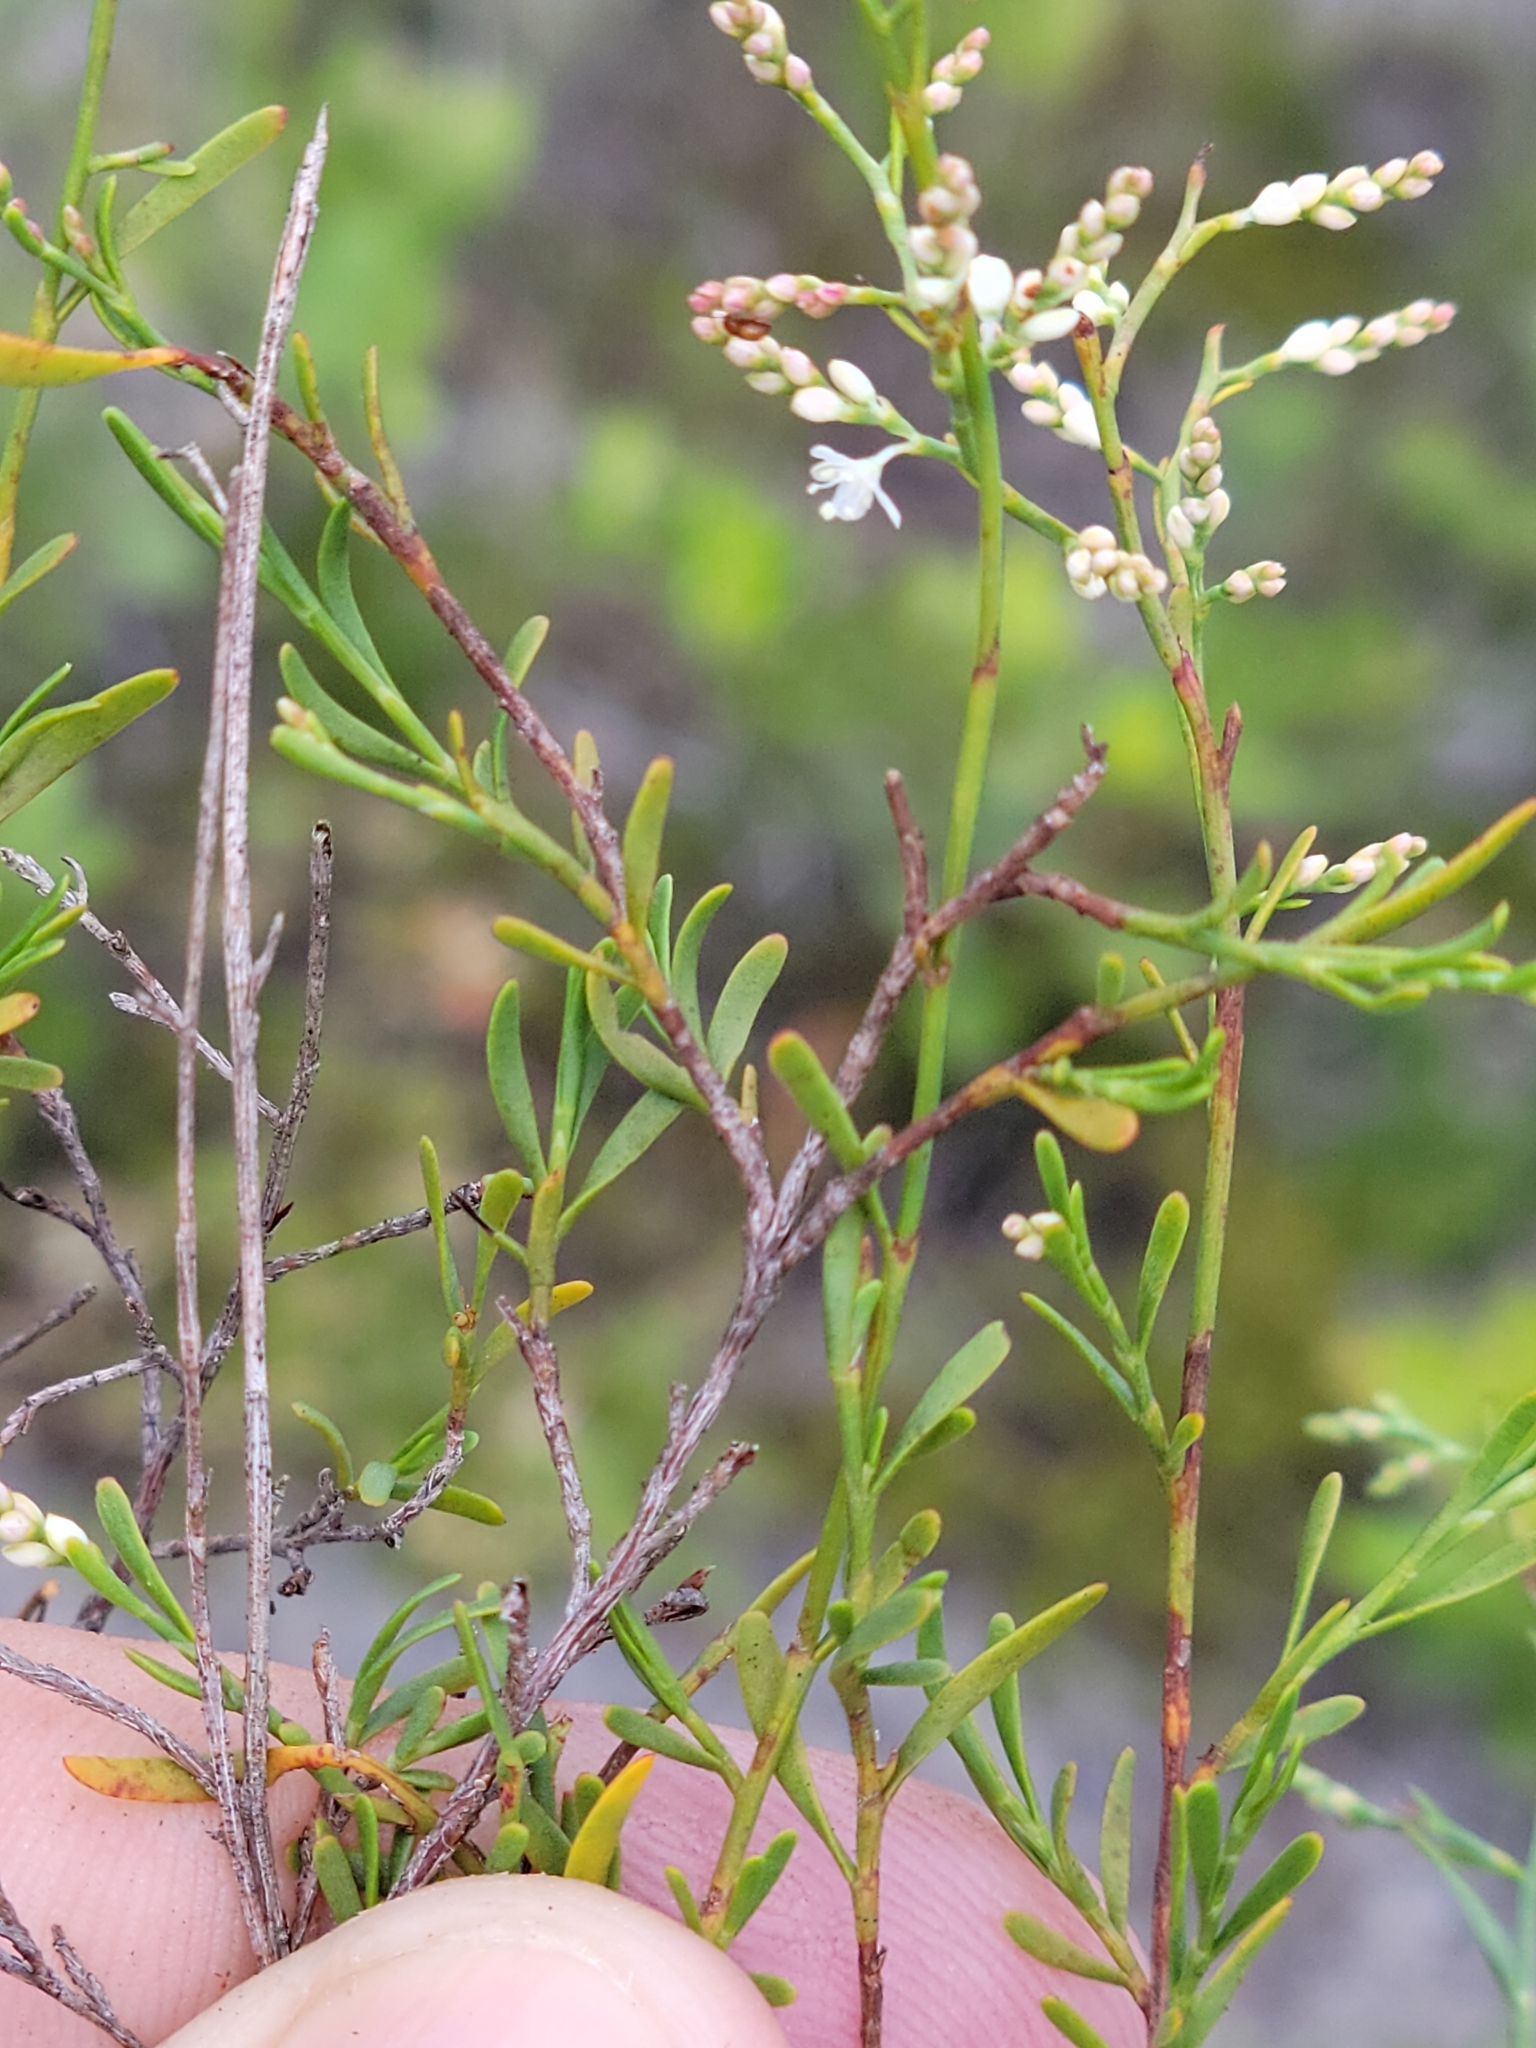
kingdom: Plantae
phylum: Tracheophyta
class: Magnoliopsida
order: Caryophyllales
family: Polygonaceae
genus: Polygonella
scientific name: Polygonella polygama
